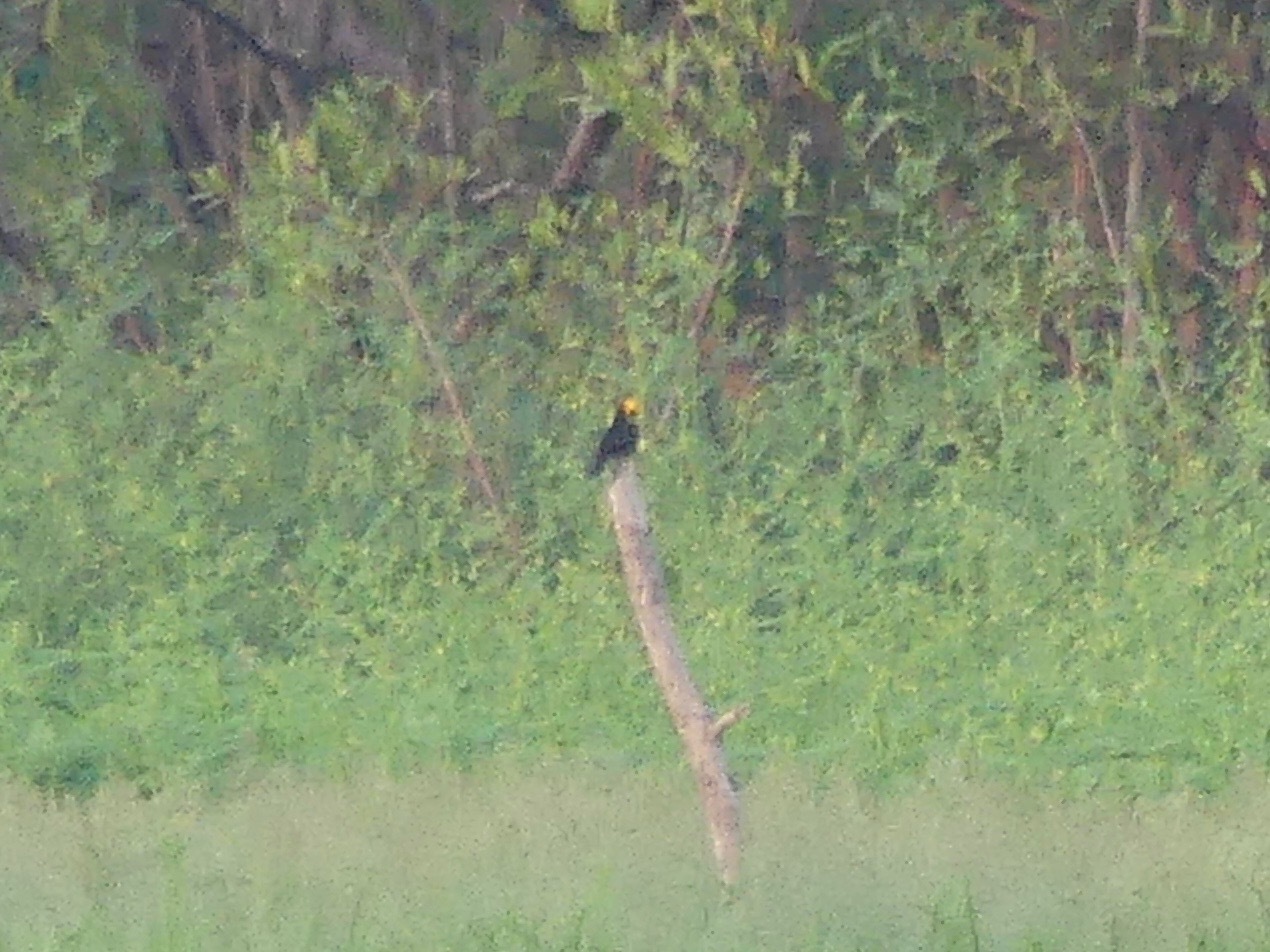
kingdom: Animalia
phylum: Chordata
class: Aves
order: Passeriformes
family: Icteridae
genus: Chrysomus
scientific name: Chrysomus icterocephalus
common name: Yellow-hooded blackbird
